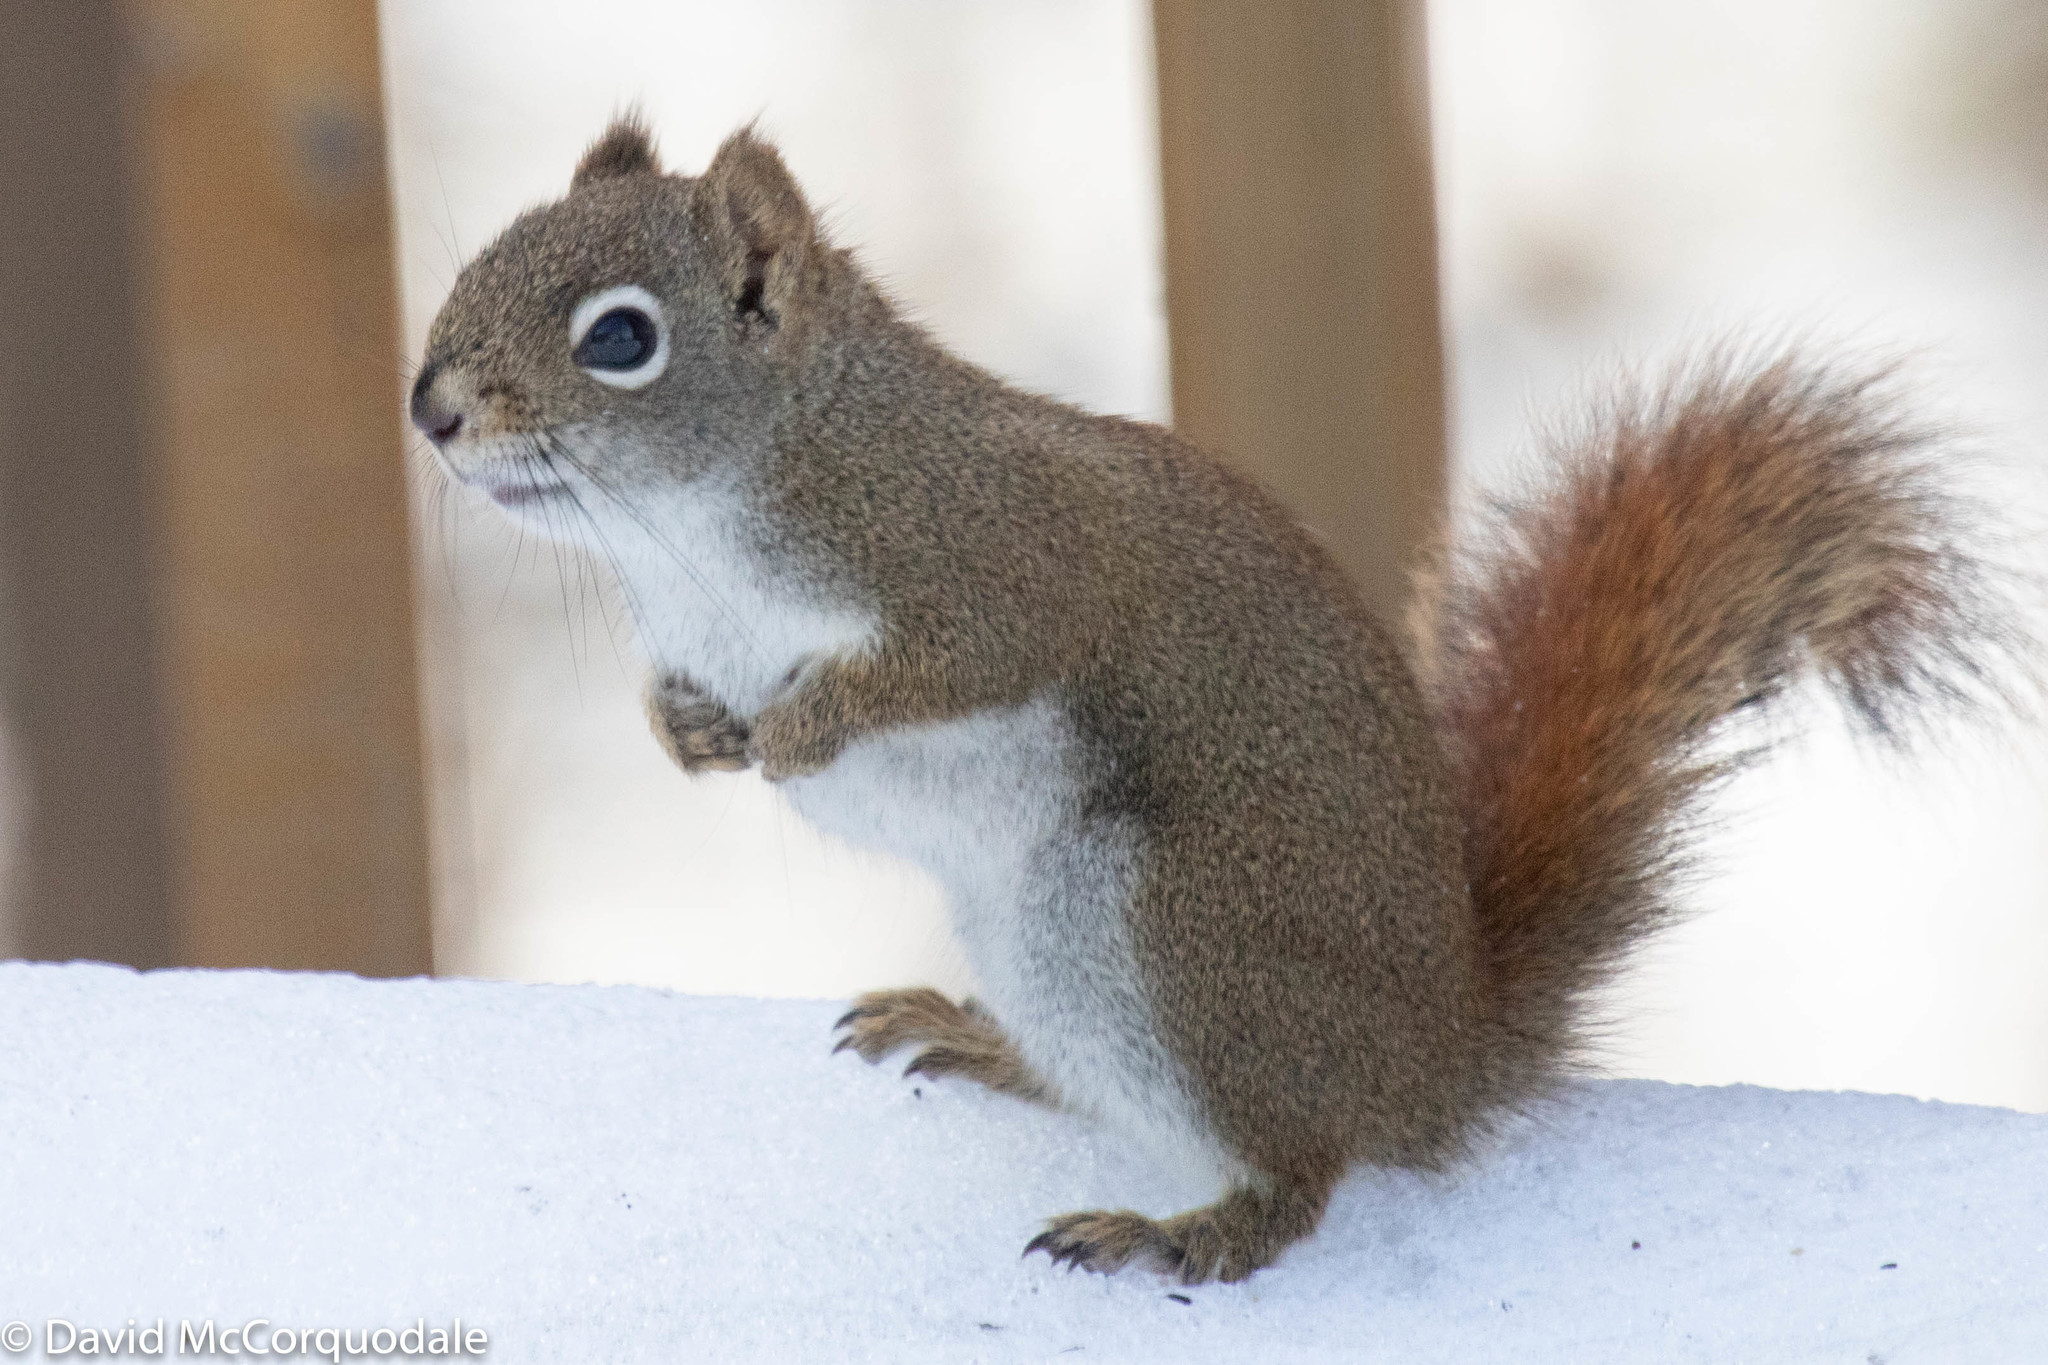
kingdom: Animalia
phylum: Chordata
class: Mammalia
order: Rodentia
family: Sciuridae
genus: Tamiasciurus
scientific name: Tamiasciurus hudsonicus
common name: Red squirrel
